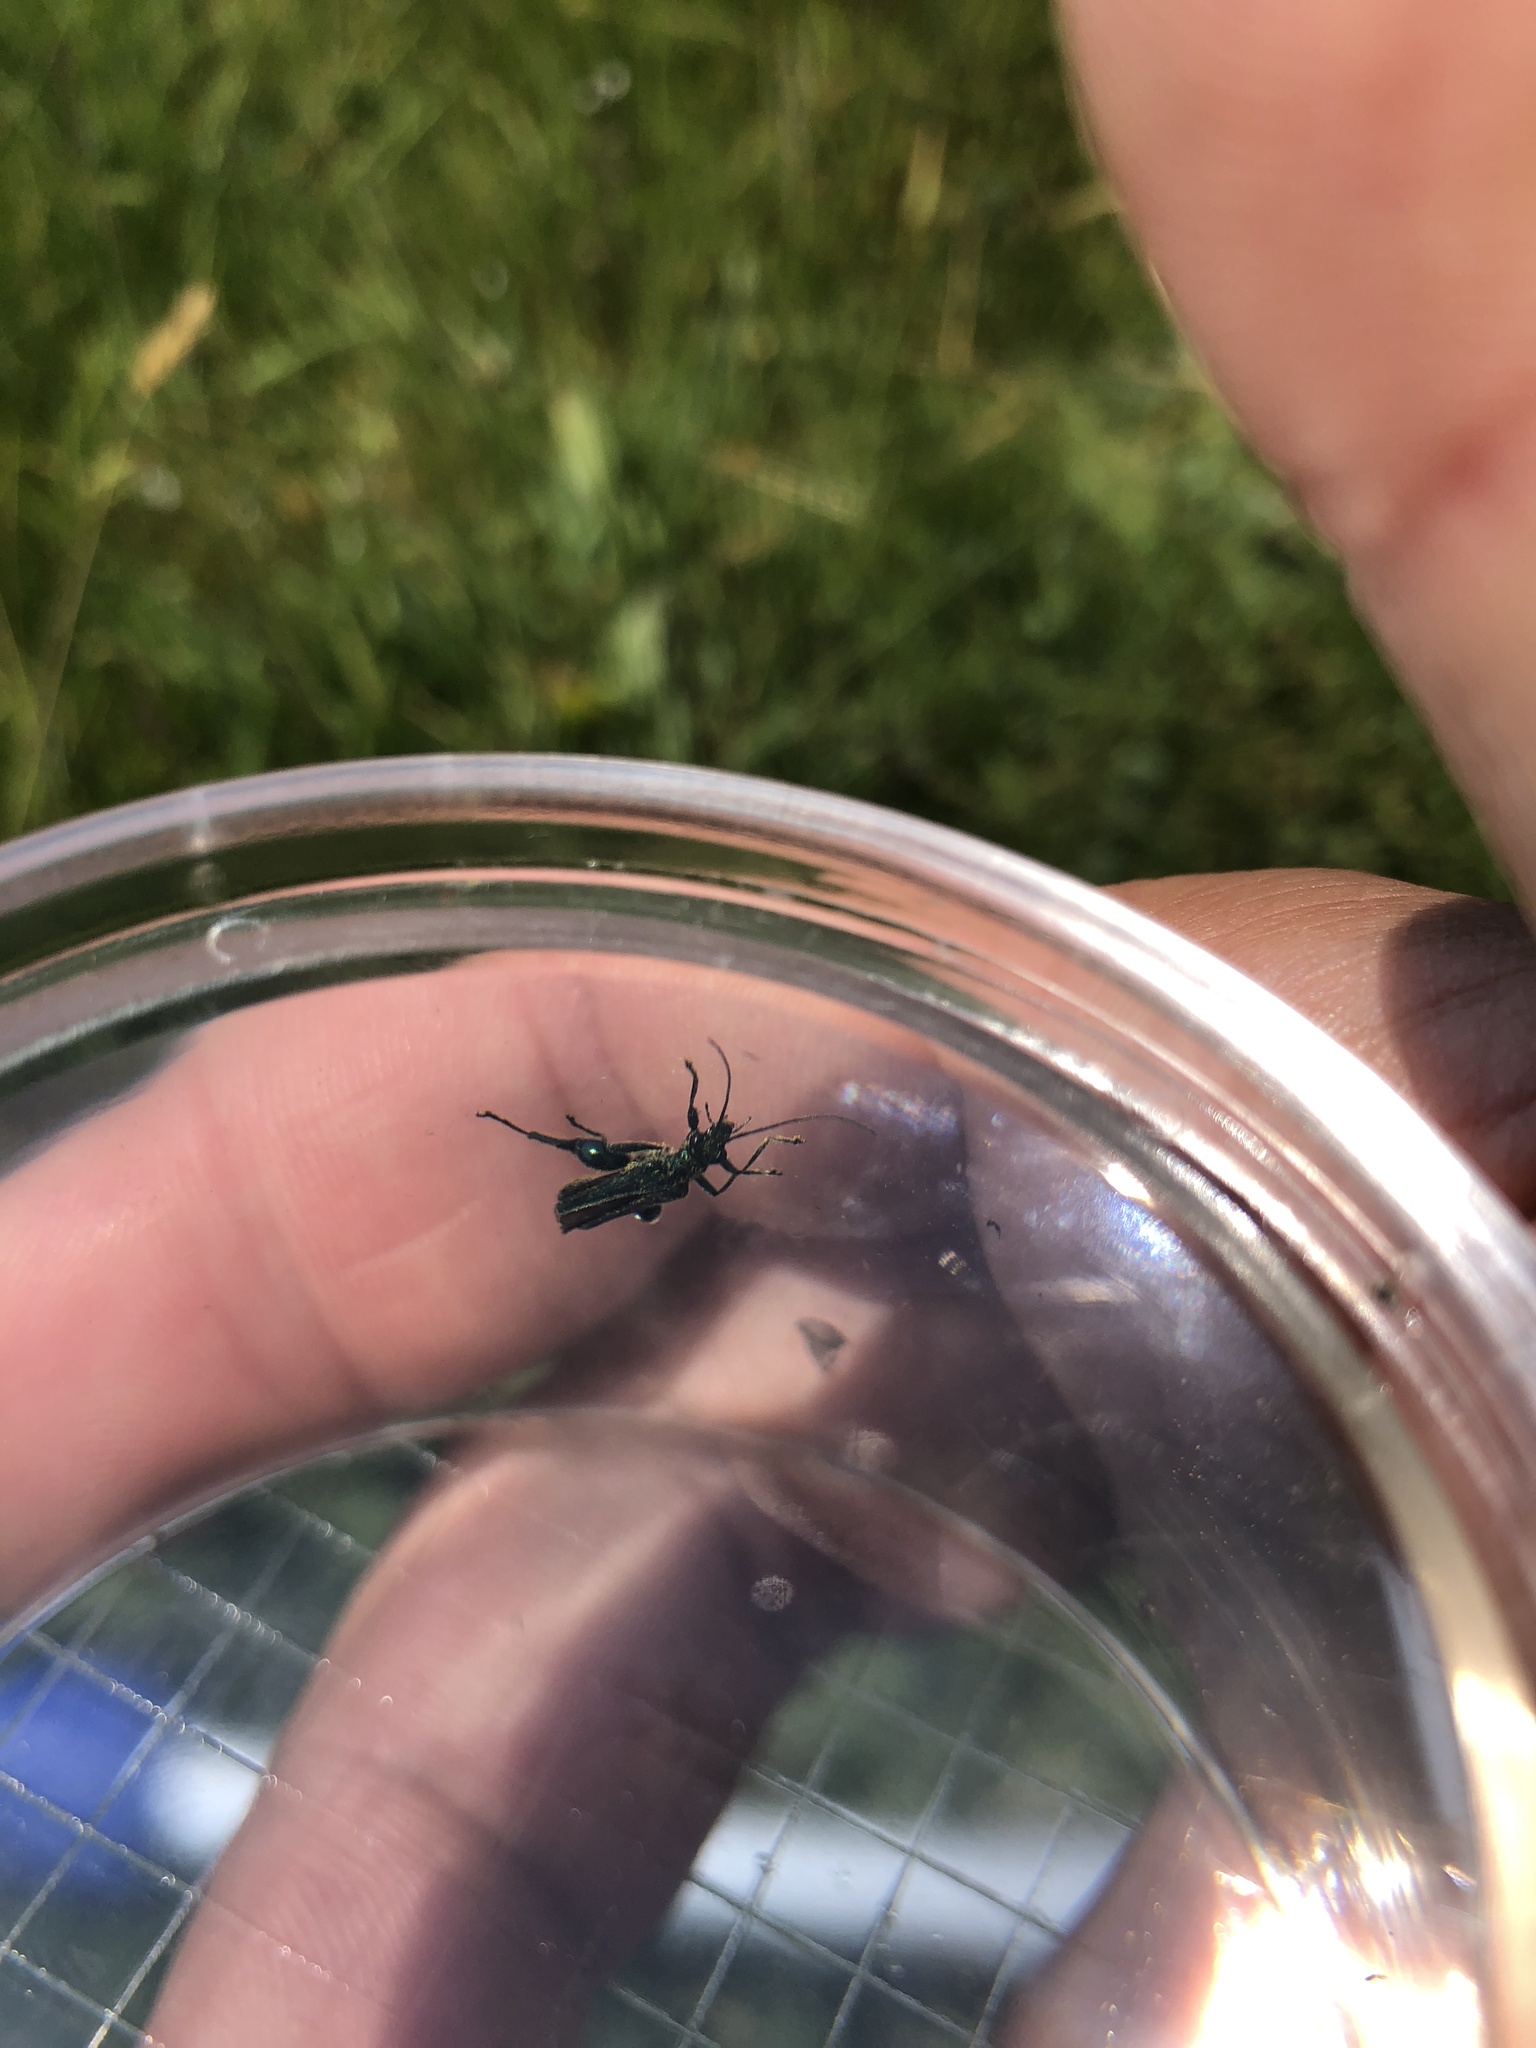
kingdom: Animalia
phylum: Arthropoda
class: Insecta
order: Coleoptera
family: Oedemeridae
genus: Oedemera
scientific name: Oedemera nobilis
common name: Swollen-thighed beetle
